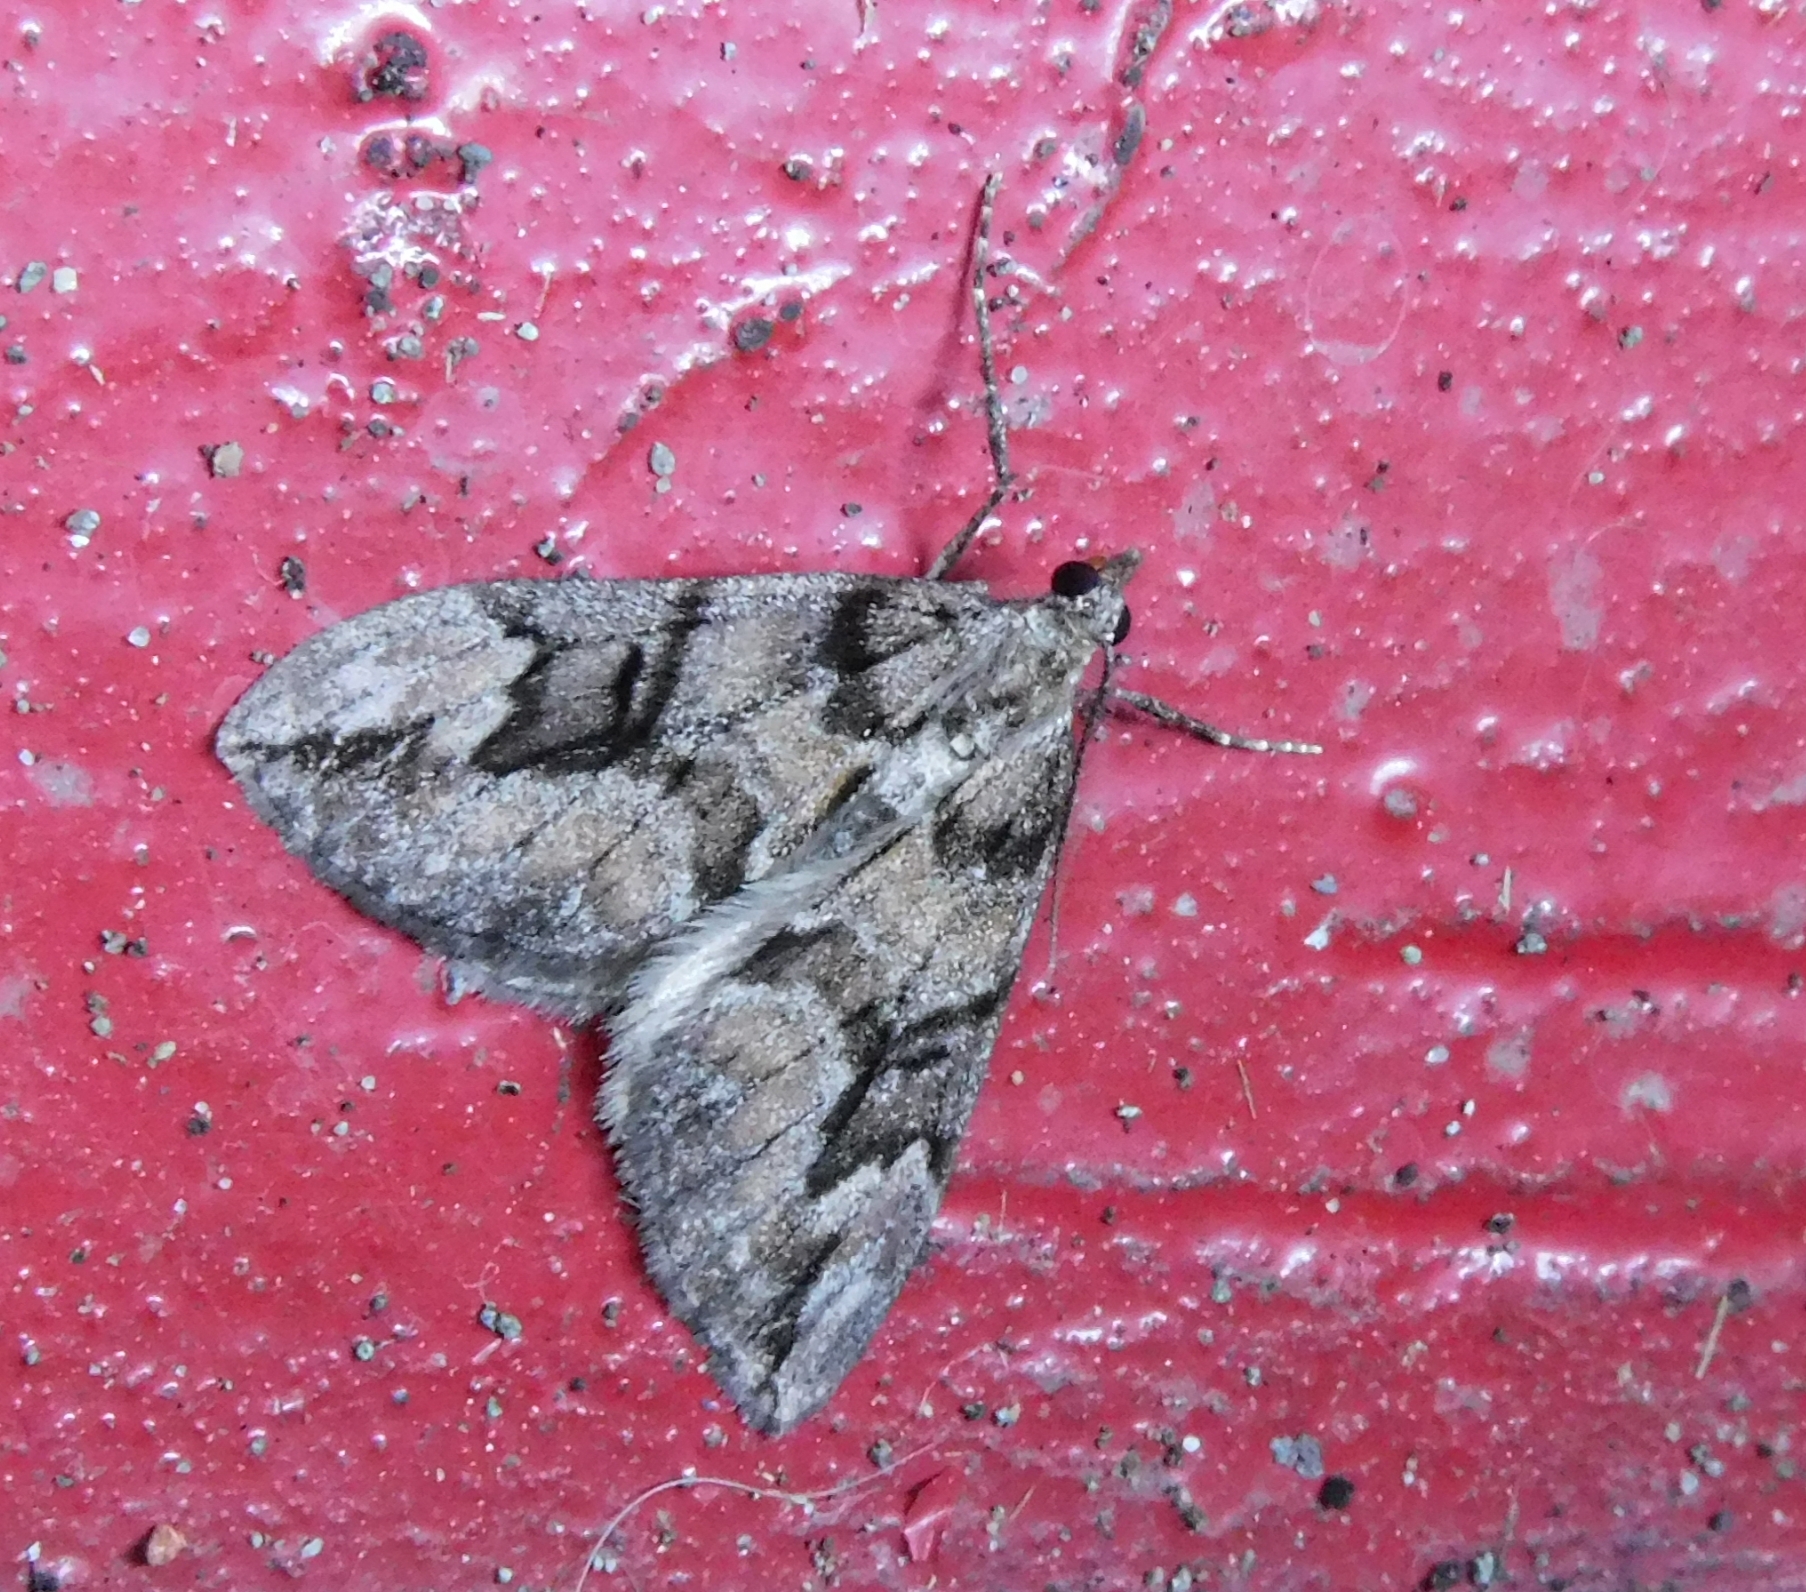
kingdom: Animalia
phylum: Arthropoda
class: Insecta
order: Lepidoptera
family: Geometridae
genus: Heterothera
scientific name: Heterothera
